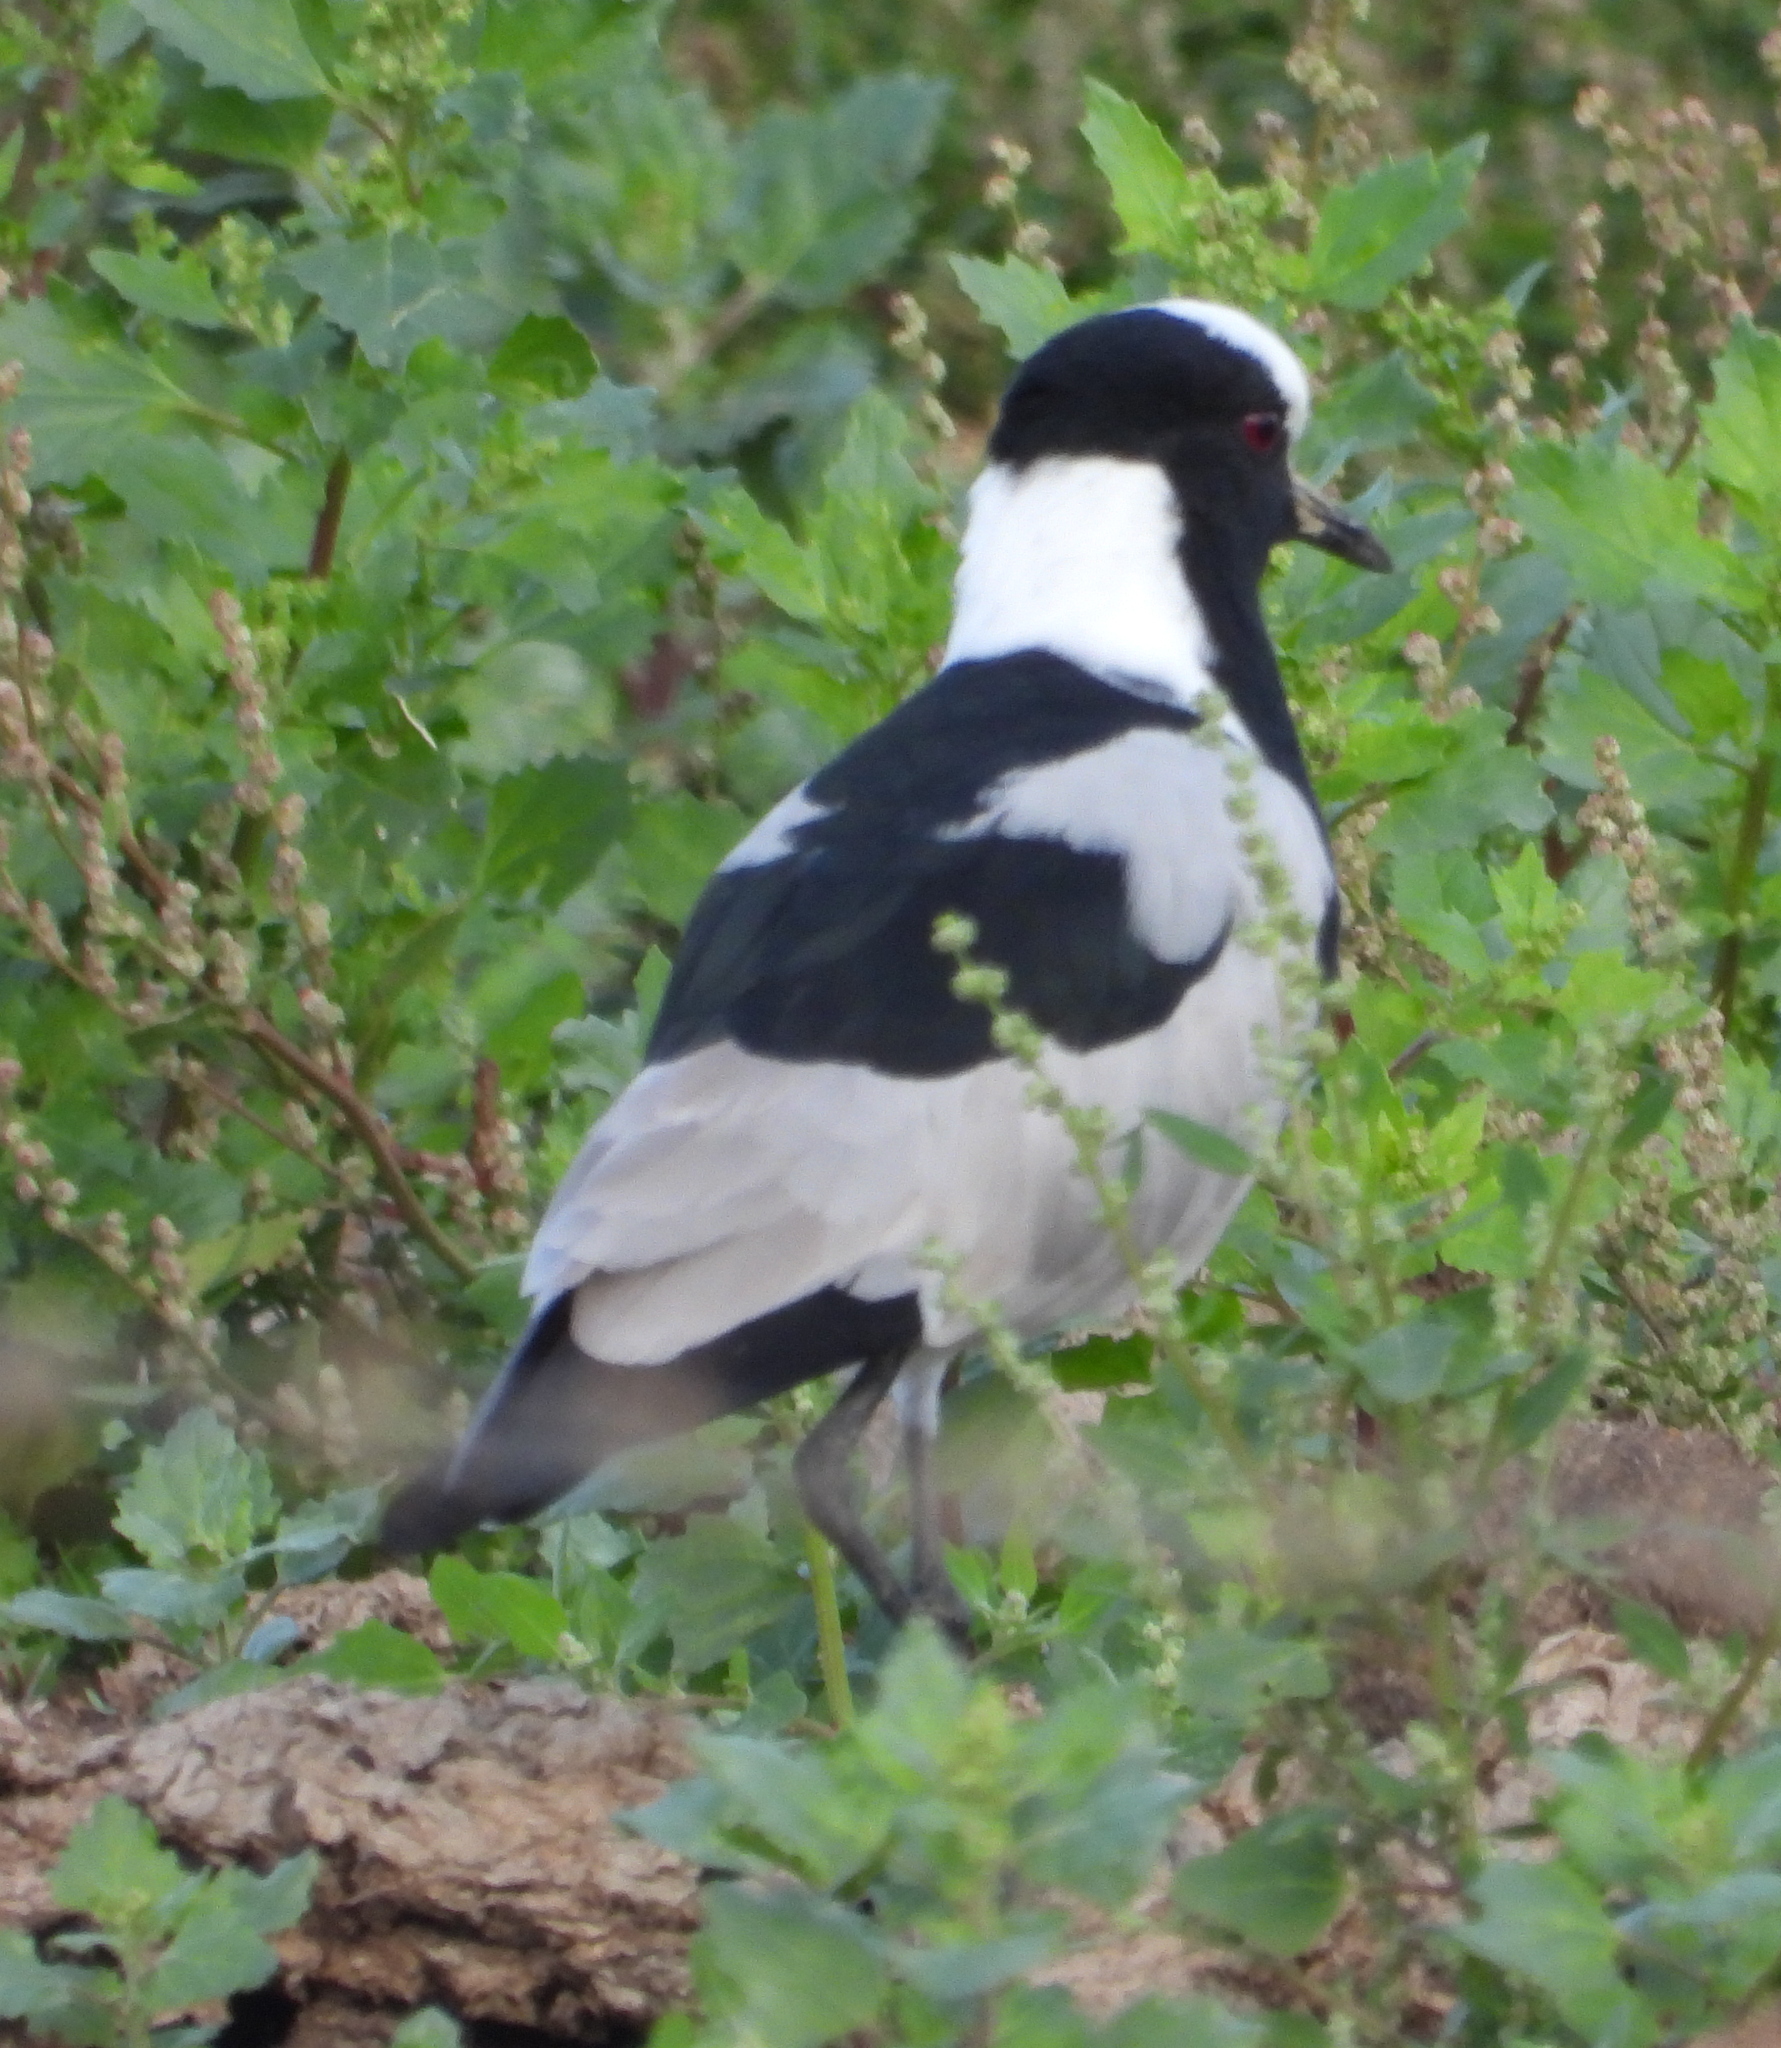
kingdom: Animalia
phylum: Chordata
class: Aves
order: Charadriiformes
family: Charadriidae
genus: Vanellus
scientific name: Vanellus armatus
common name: Blacksmith lapwing
